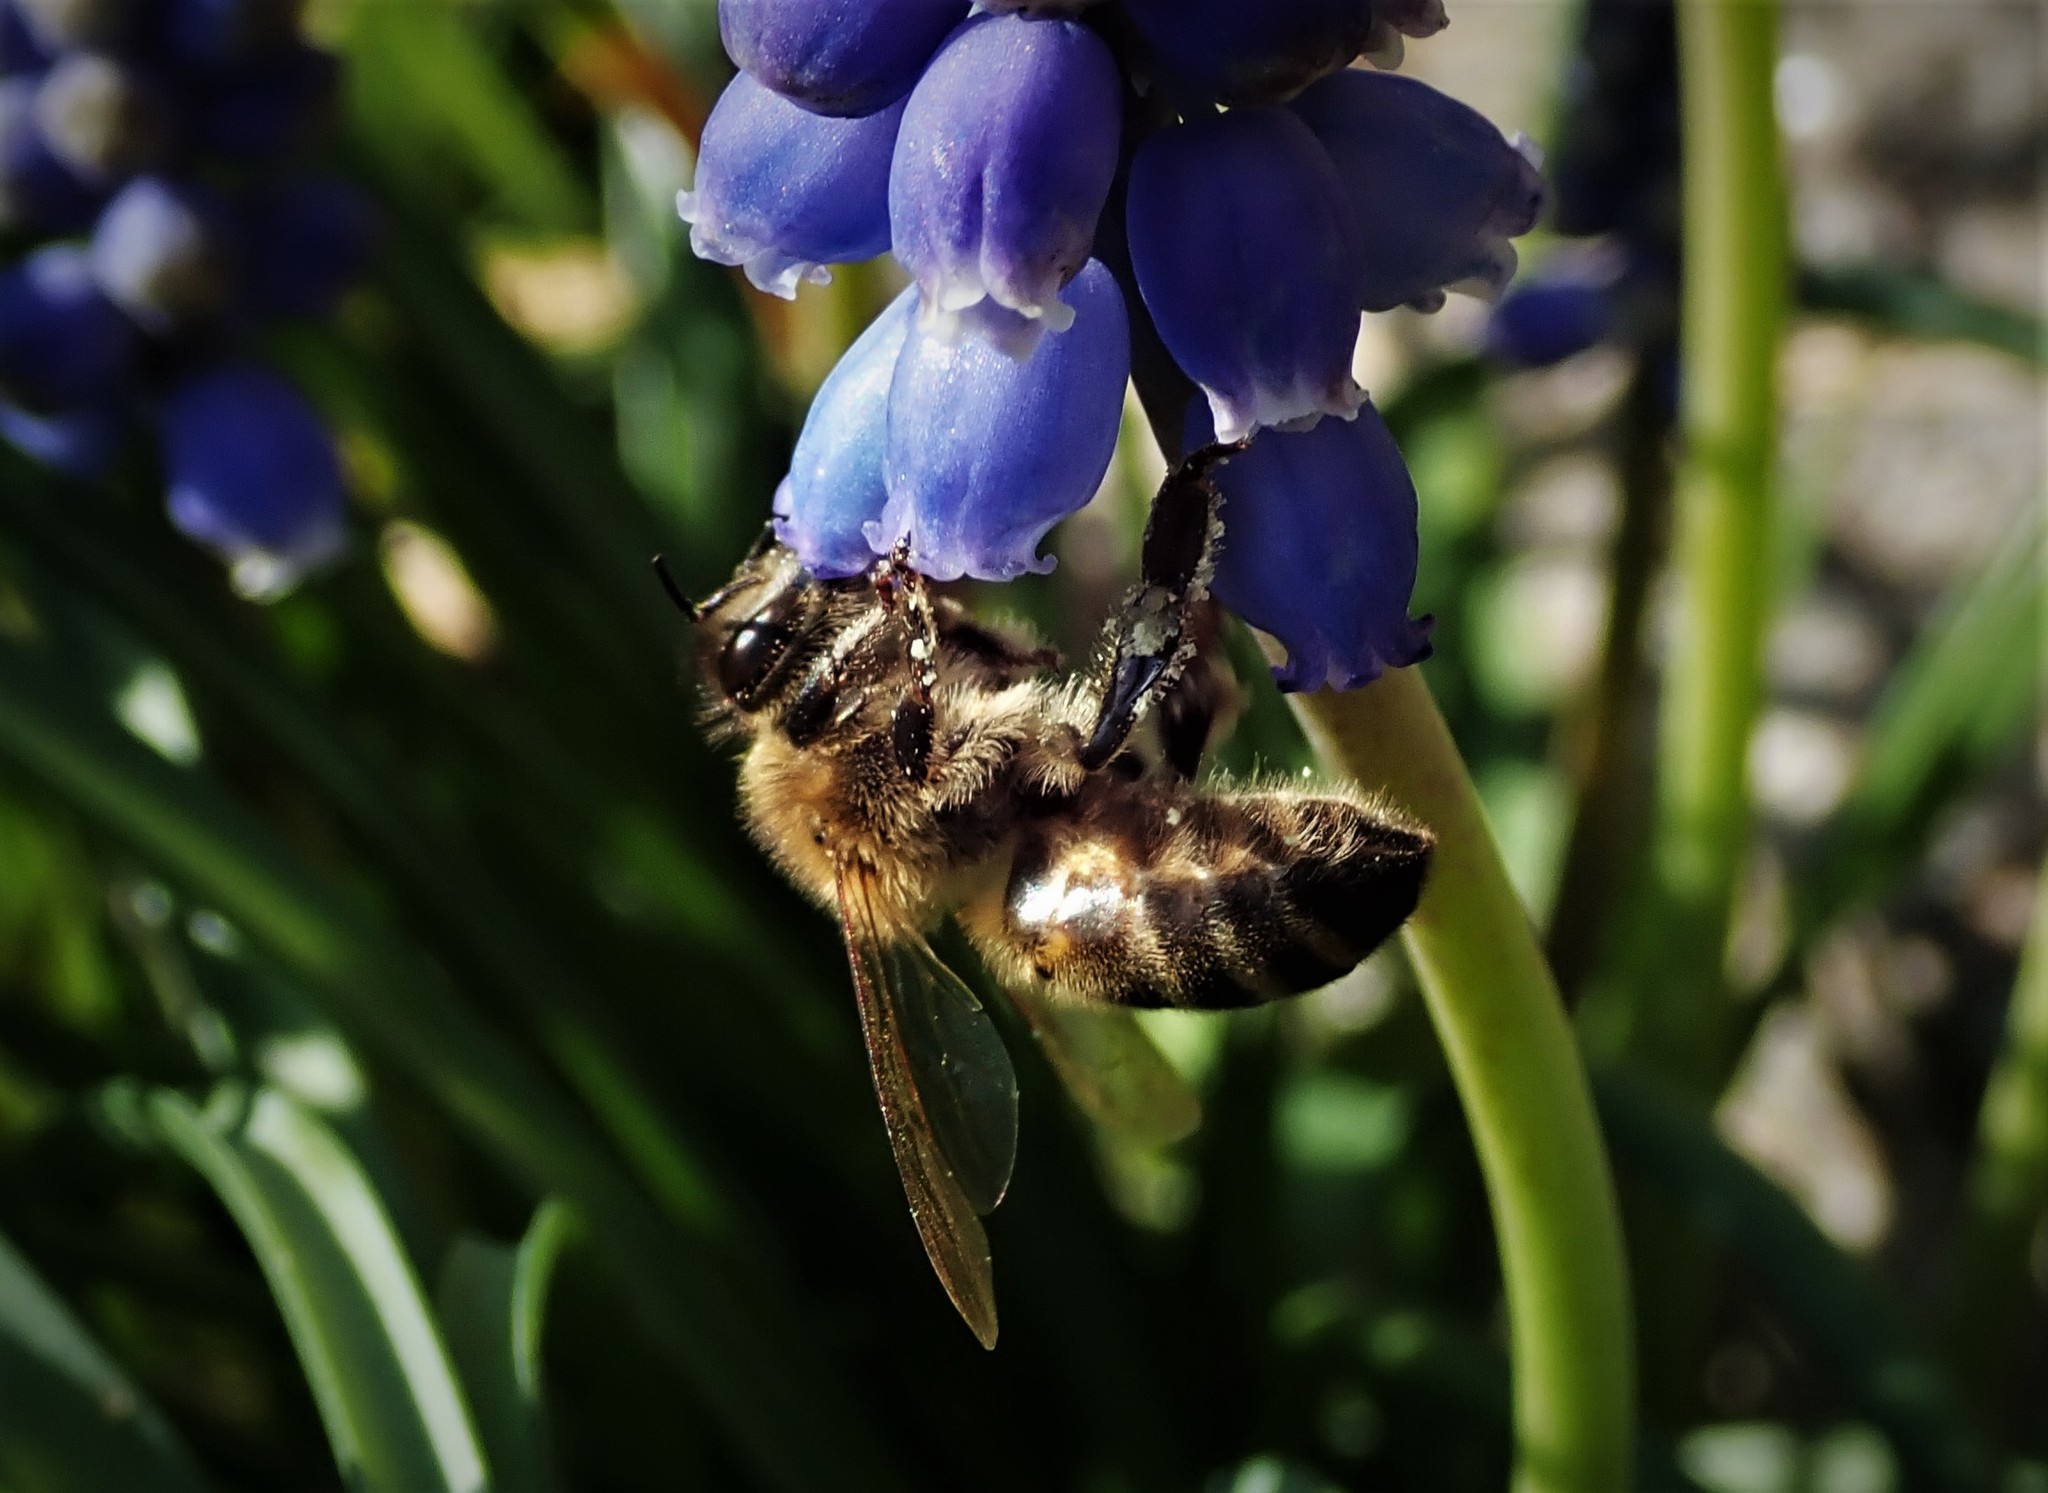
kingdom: Animalia
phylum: Arthropoda
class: Insecta
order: Hymenoptera
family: Apidae
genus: Apis
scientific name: Apis mellifera
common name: Honey bee
